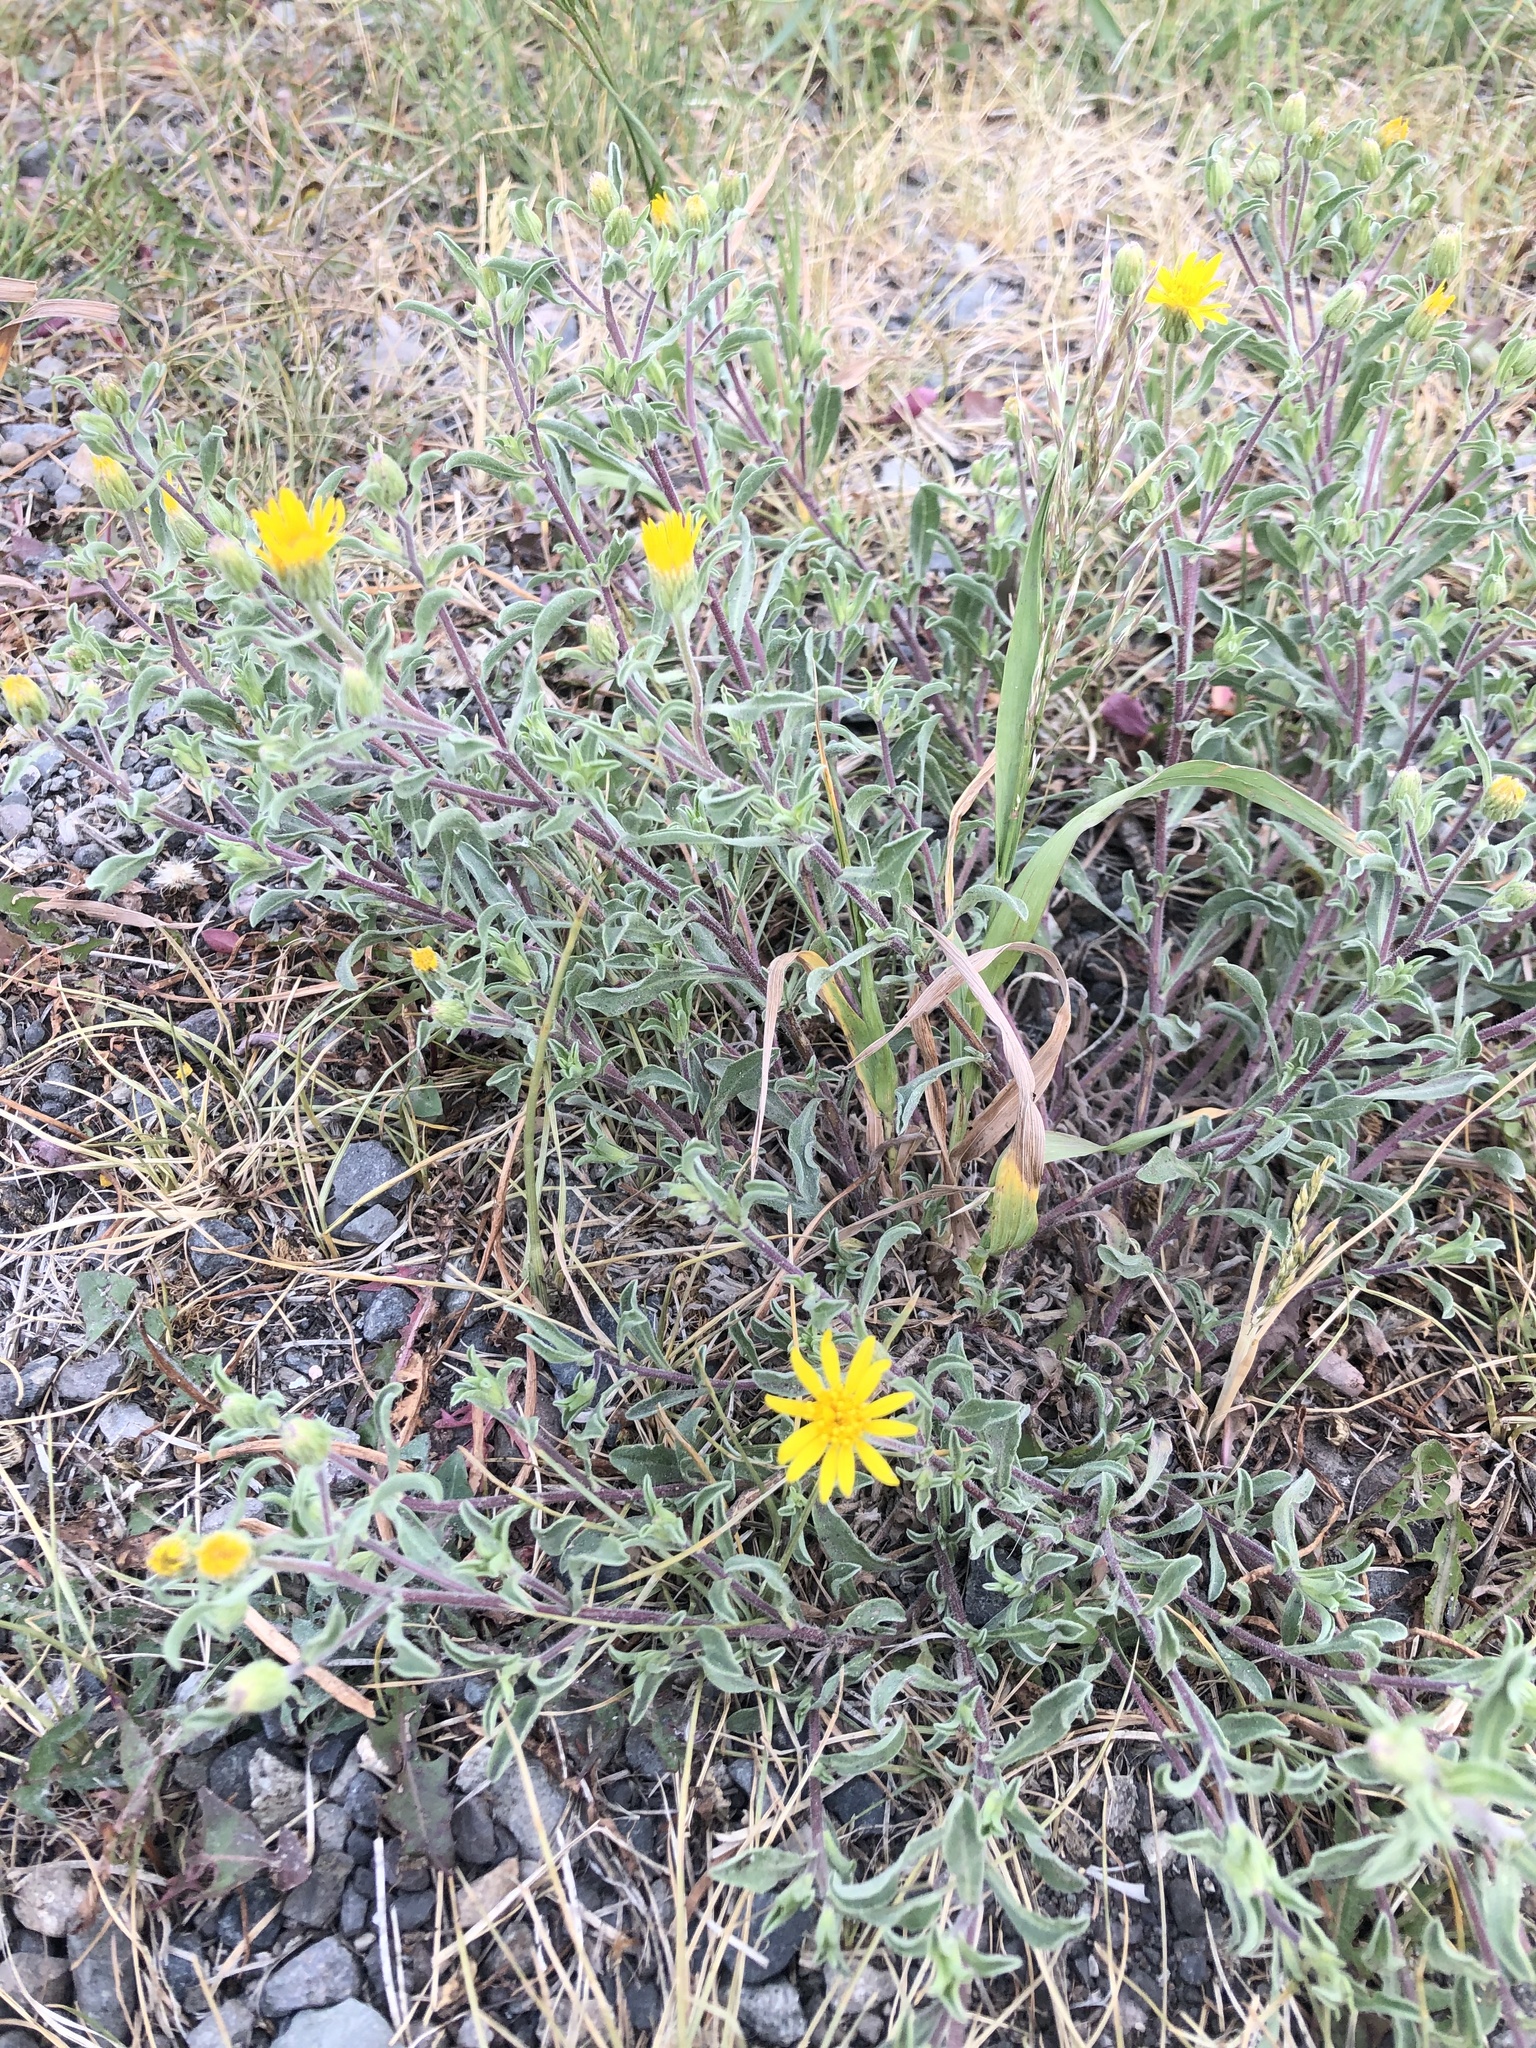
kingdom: Plantae
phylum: Tracheophyta
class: Magnoliopsida
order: Asterales
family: Asteraceae
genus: Heterotheca
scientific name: Heterotheca depressa
